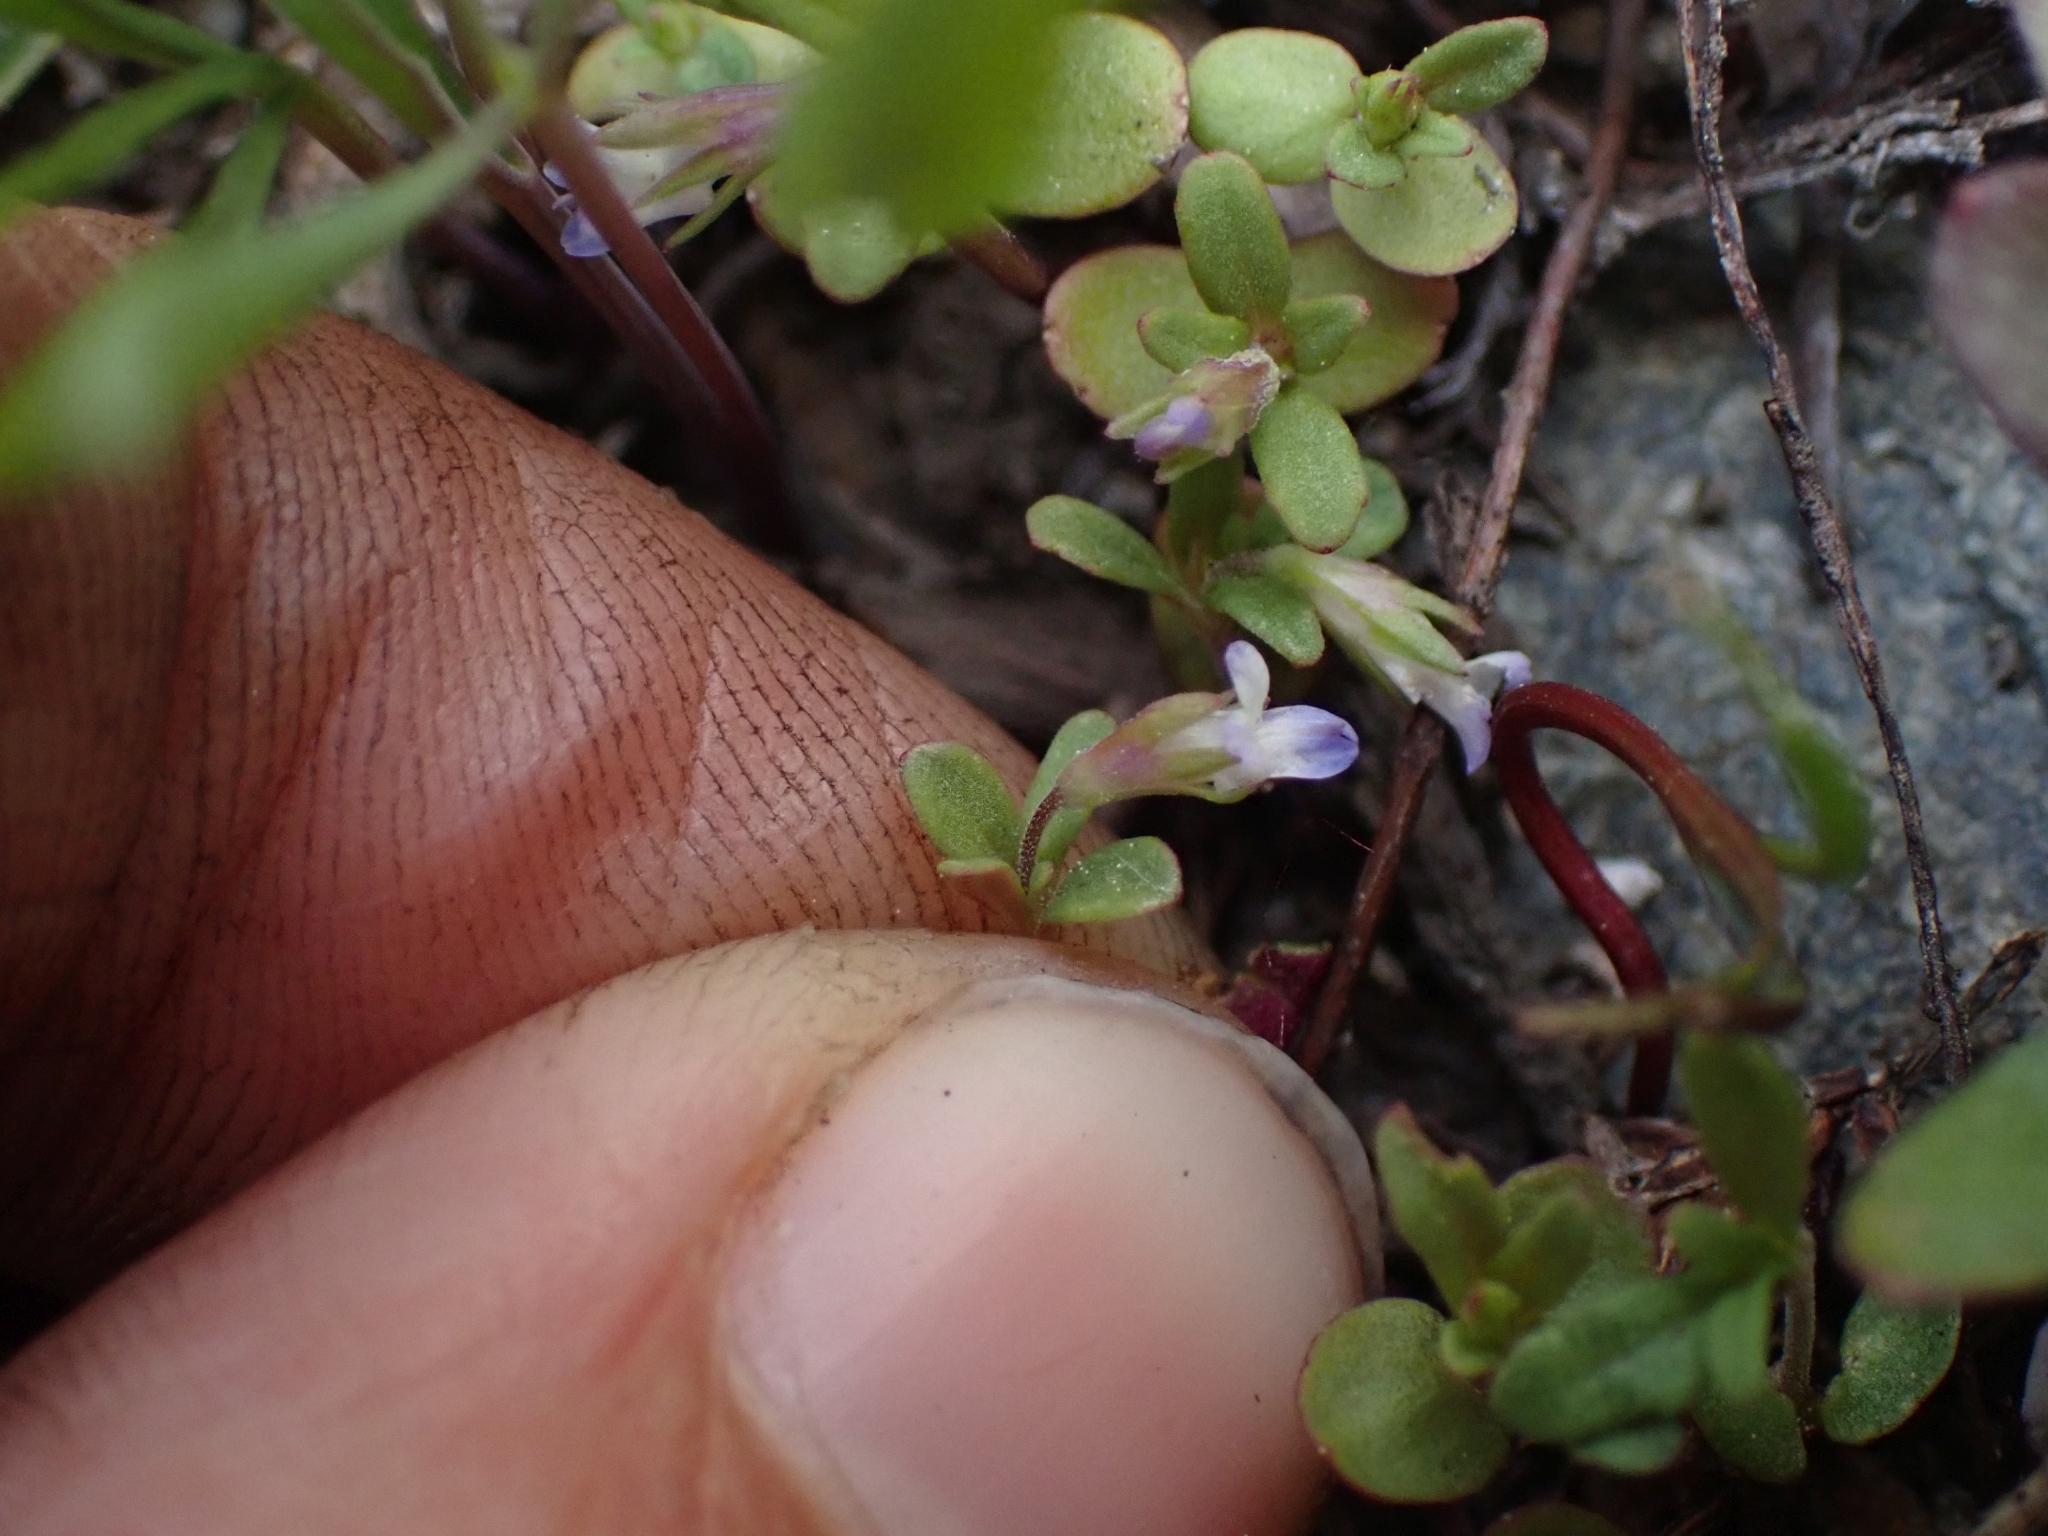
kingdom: Plantae
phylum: Tracheophyta
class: Magnoliopsida
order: Lamiales
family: Plantaginaceae
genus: Collinsia
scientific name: Collinsia parviflora
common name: Blue-lips
